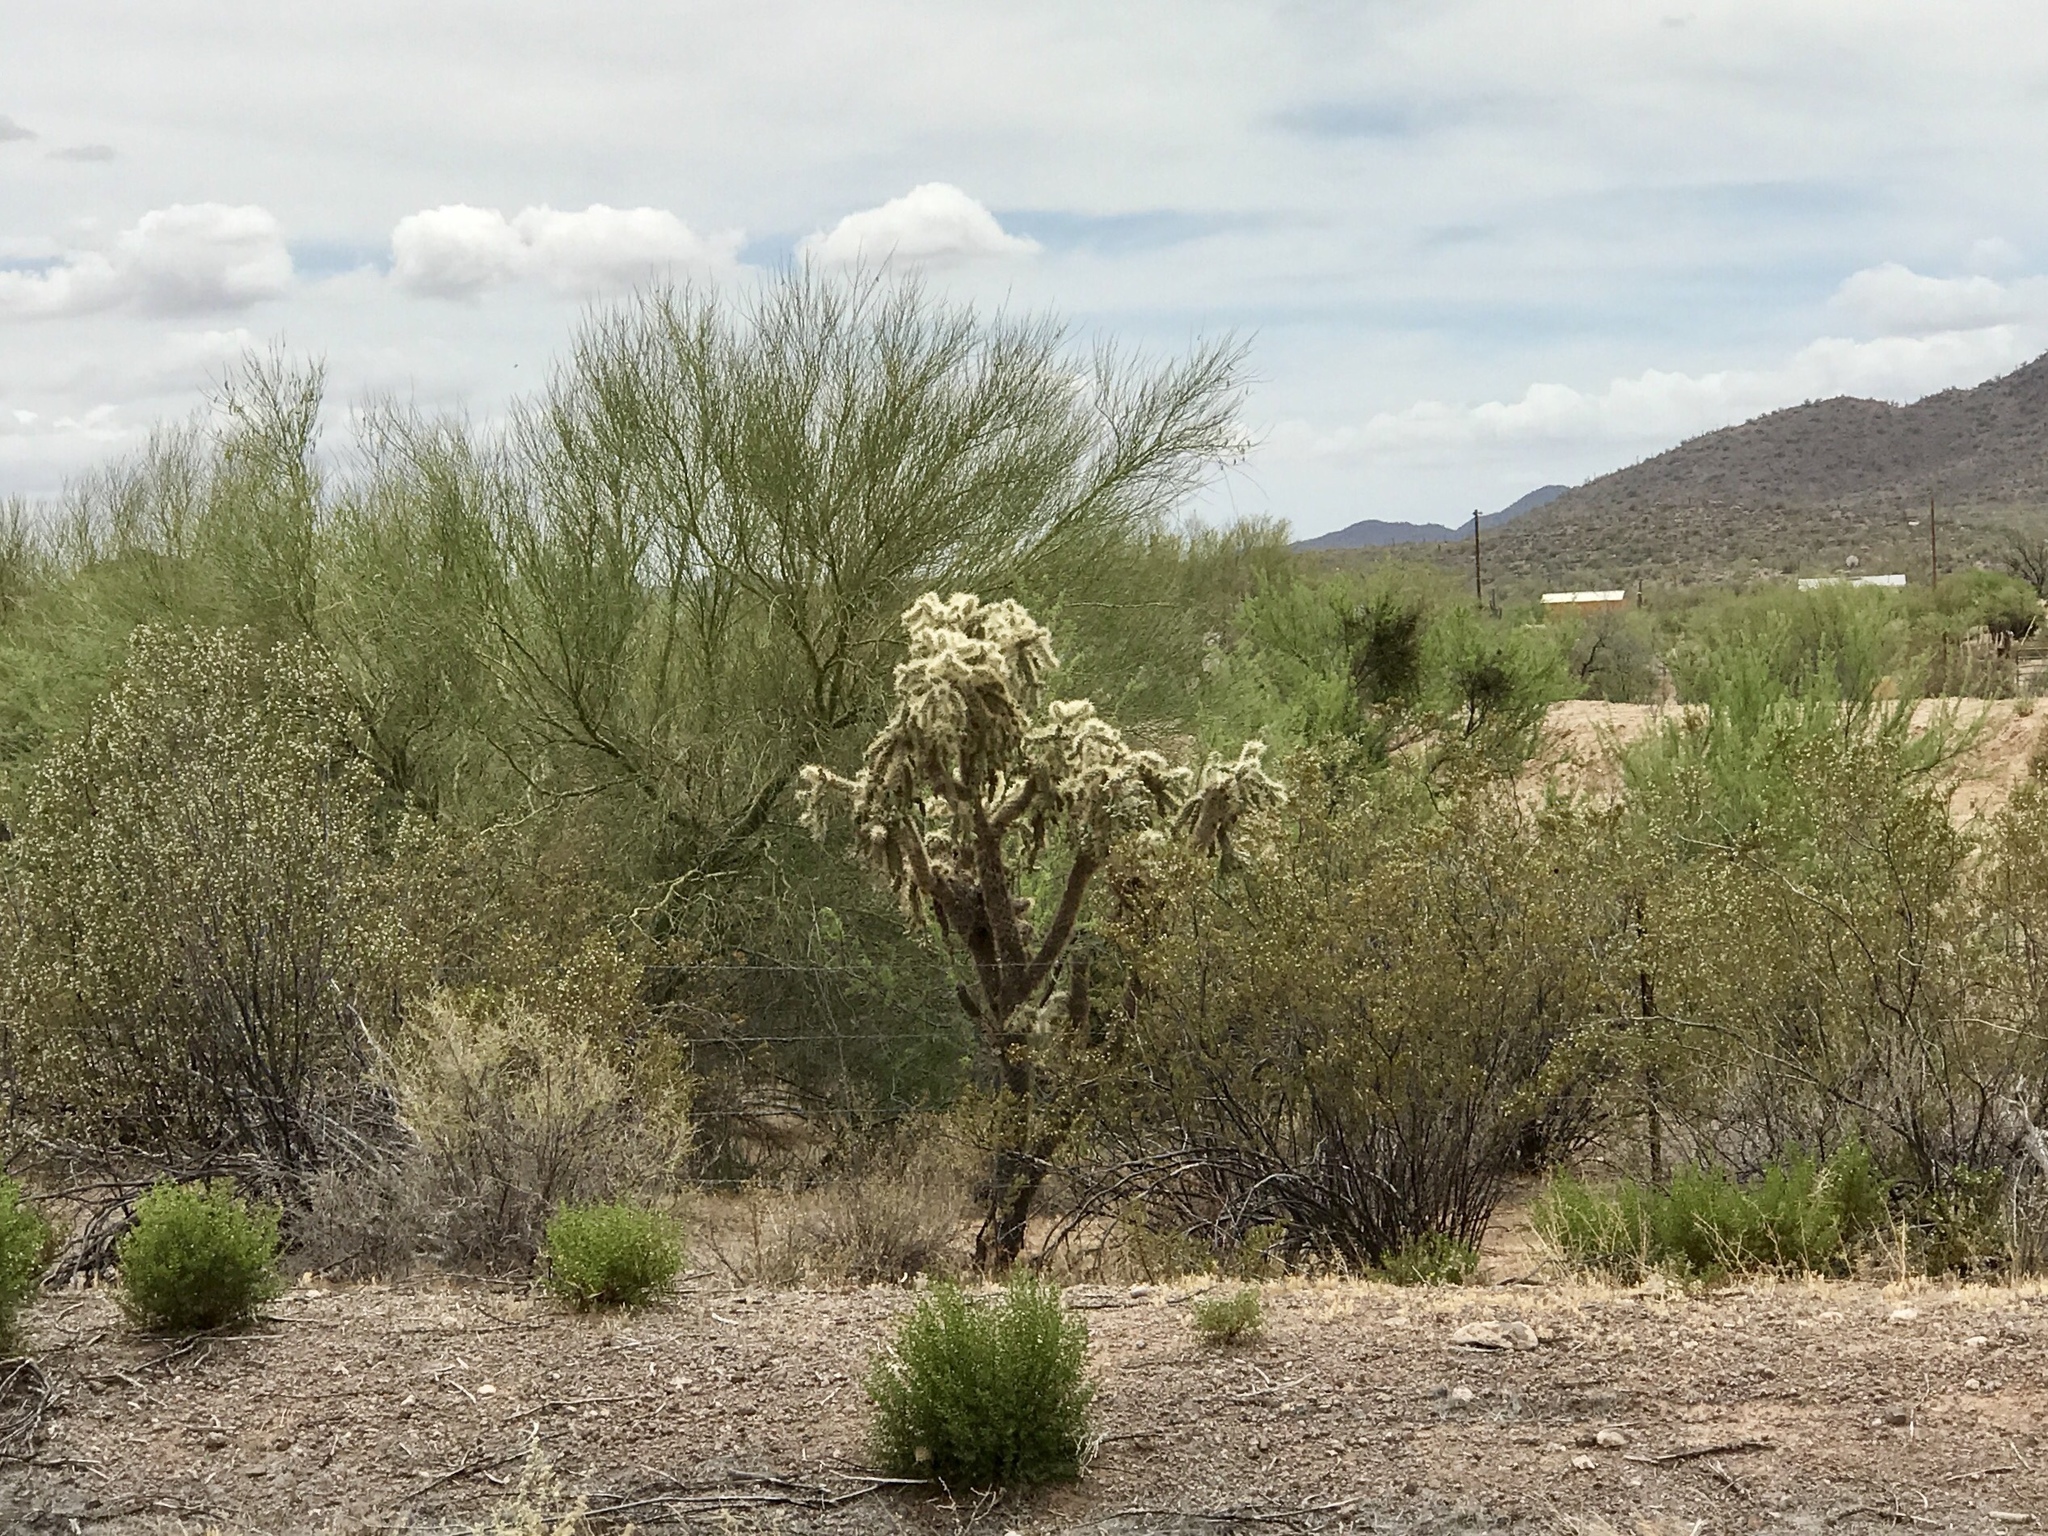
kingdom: Plantae
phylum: Tracheophyta
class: Magnoliopsida
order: Caryophyllales
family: Cactaceae
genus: Cylindropuntia
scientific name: Cylindropuntia fulgida
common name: Jumping cholla
